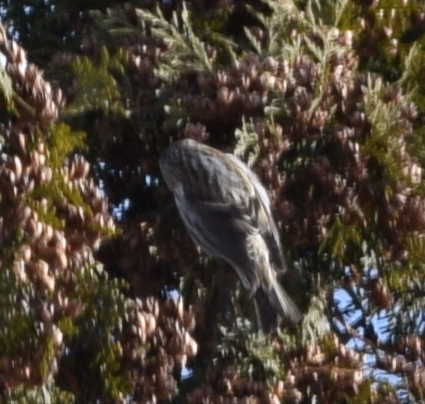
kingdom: Animalia
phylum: Chordata
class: Aves
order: Passeriformes
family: Fringillidae
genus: Acanthis
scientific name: Acanthis flammea
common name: Common redpoll
